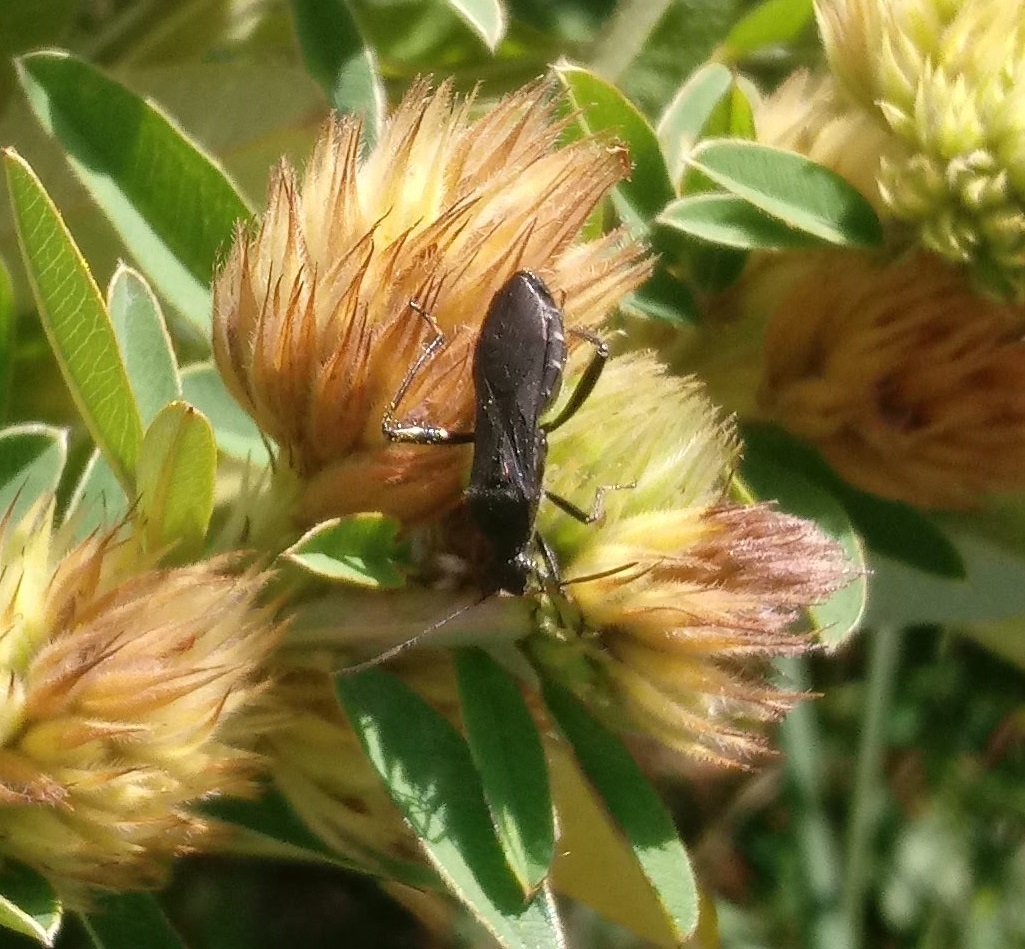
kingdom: Animalia
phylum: Arthropoda
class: Insecta
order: Hemiptera
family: Alydidae
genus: Alydus
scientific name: Alydus eurinus
